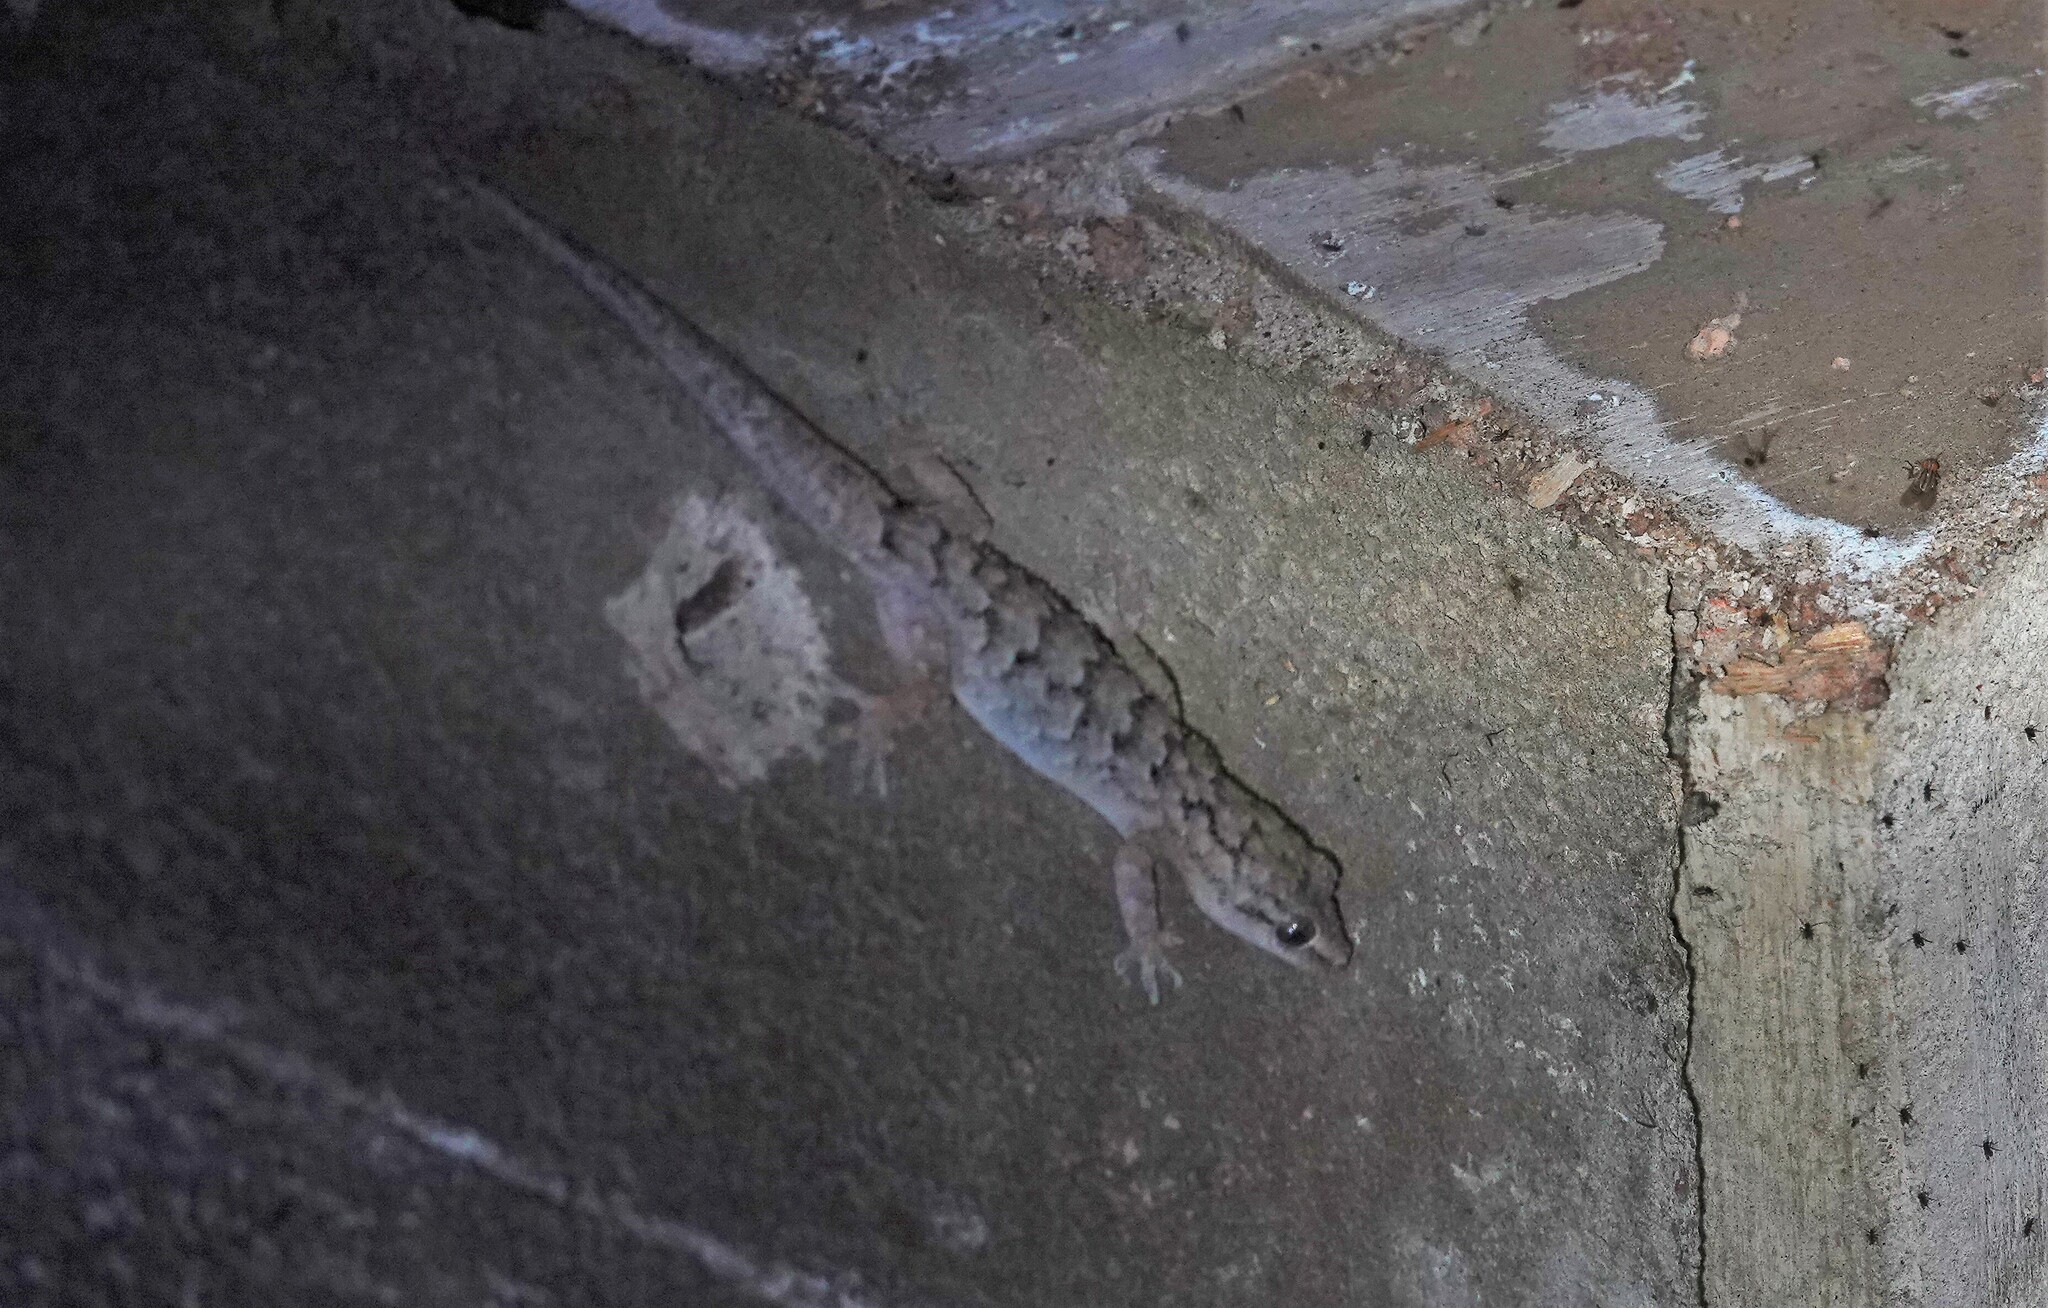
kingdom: Animalia
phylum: Chordata
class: Squamata
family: Gekkonidae
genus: Hemidactylus
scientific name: Hemidactylus palaichthus
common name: Antilles leaf-toed gecko
